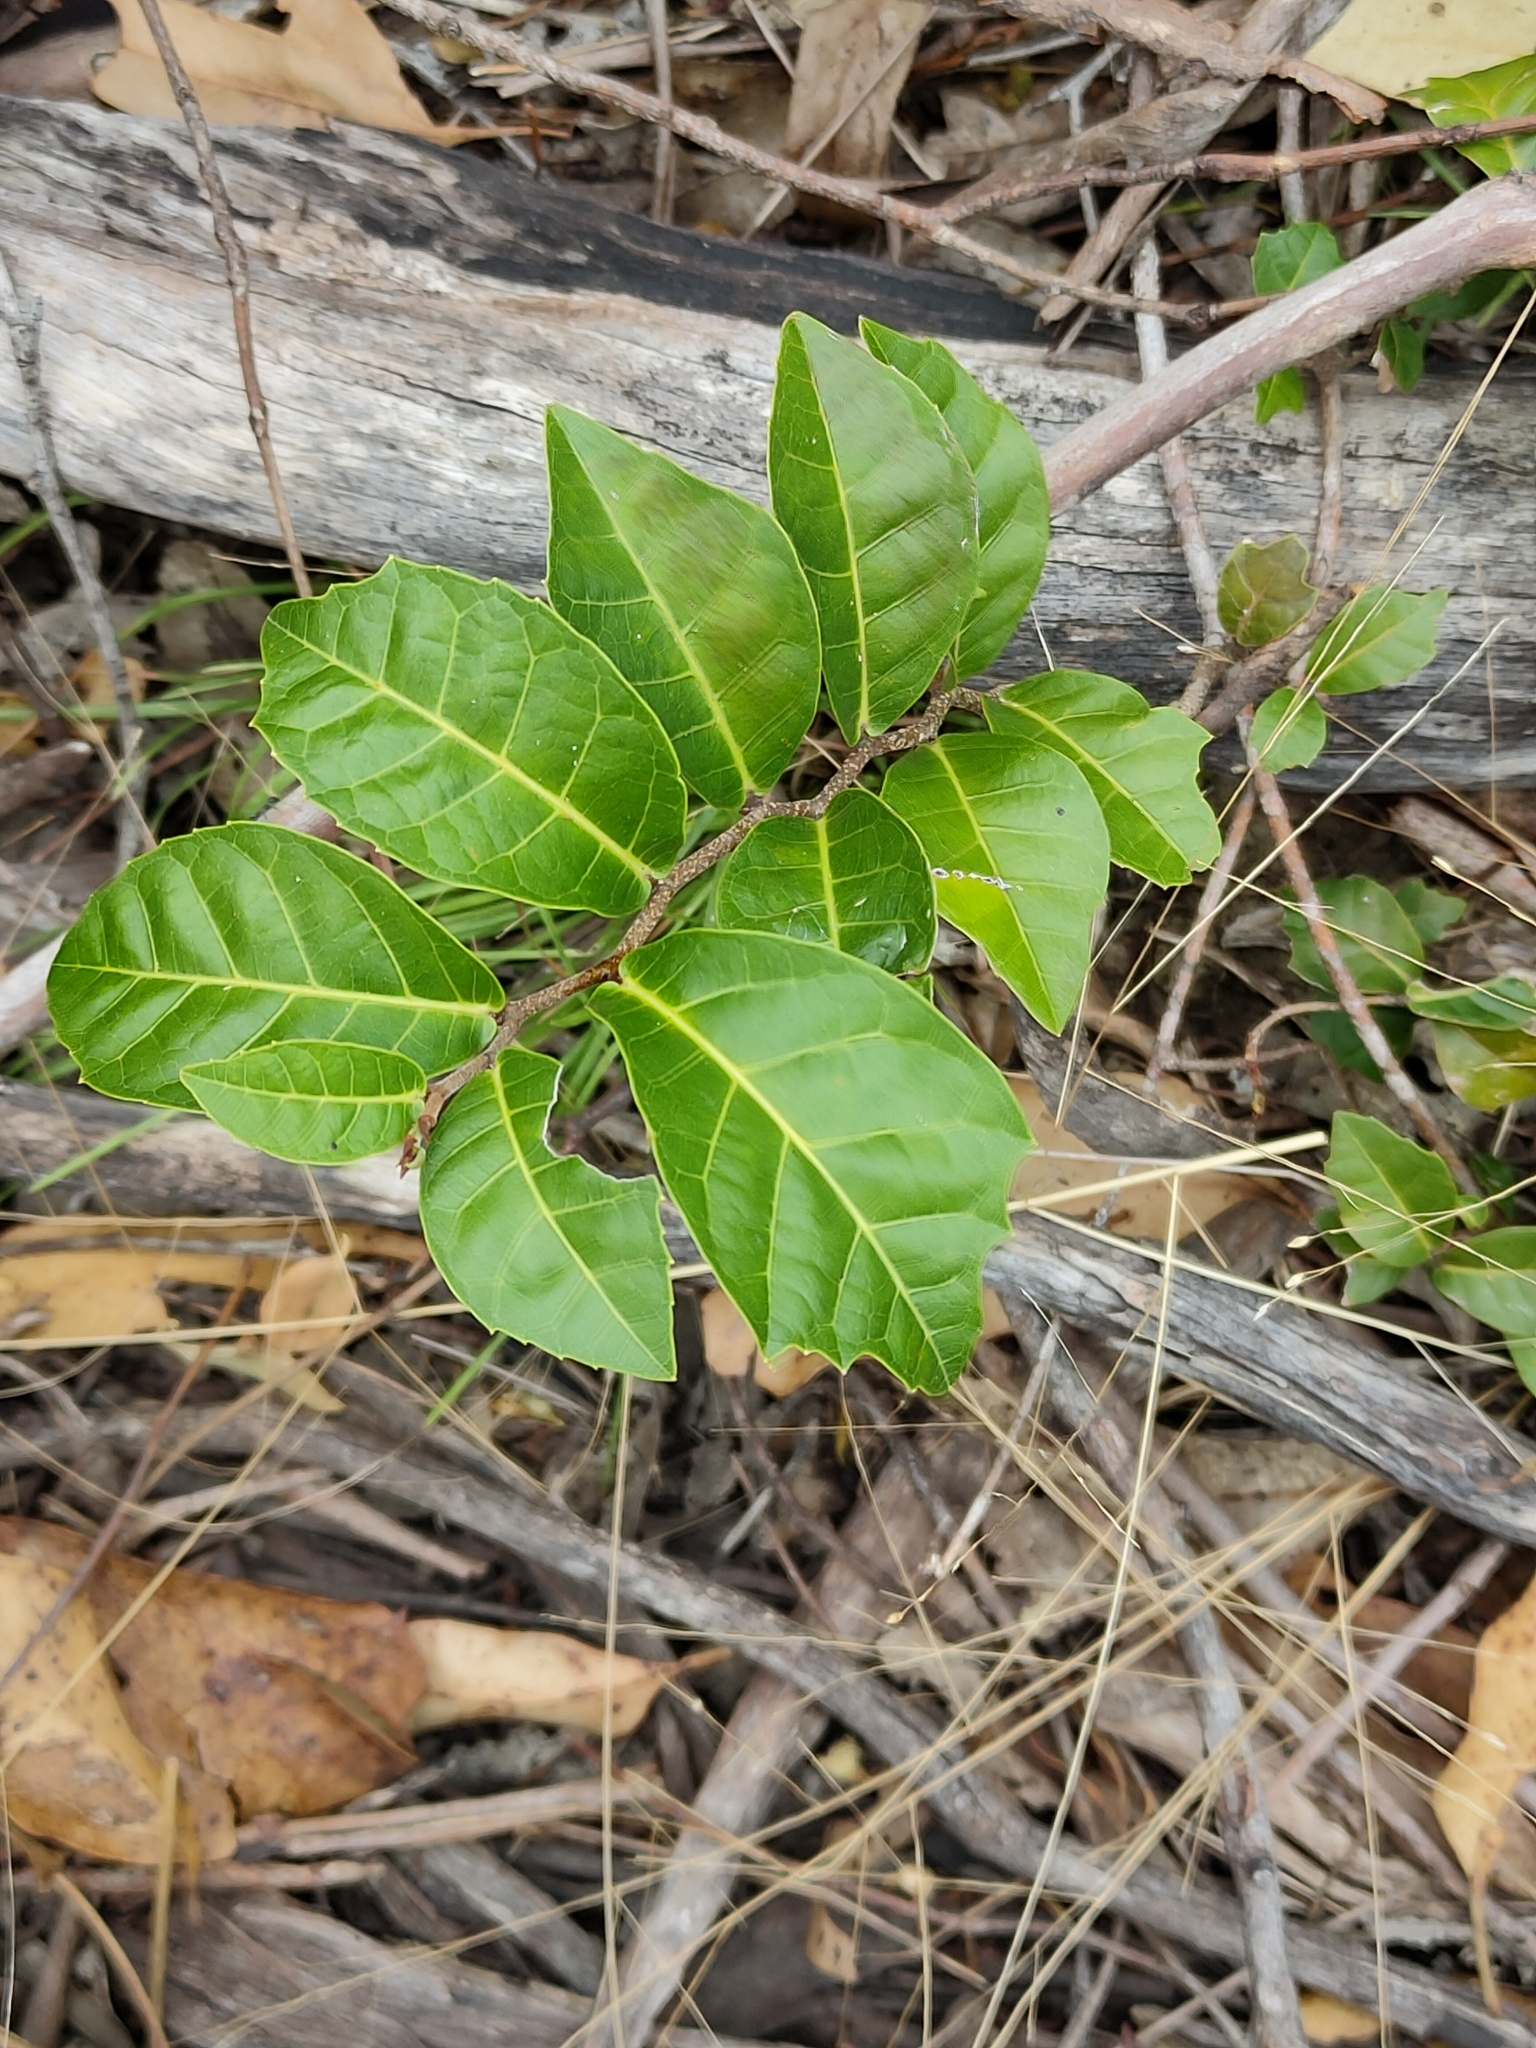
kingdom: Plantae
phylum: Tracheophyta
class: Magnoliopsida
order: Rosales
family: Moraceae
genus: Malaisia
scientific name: Malaisia scandens
